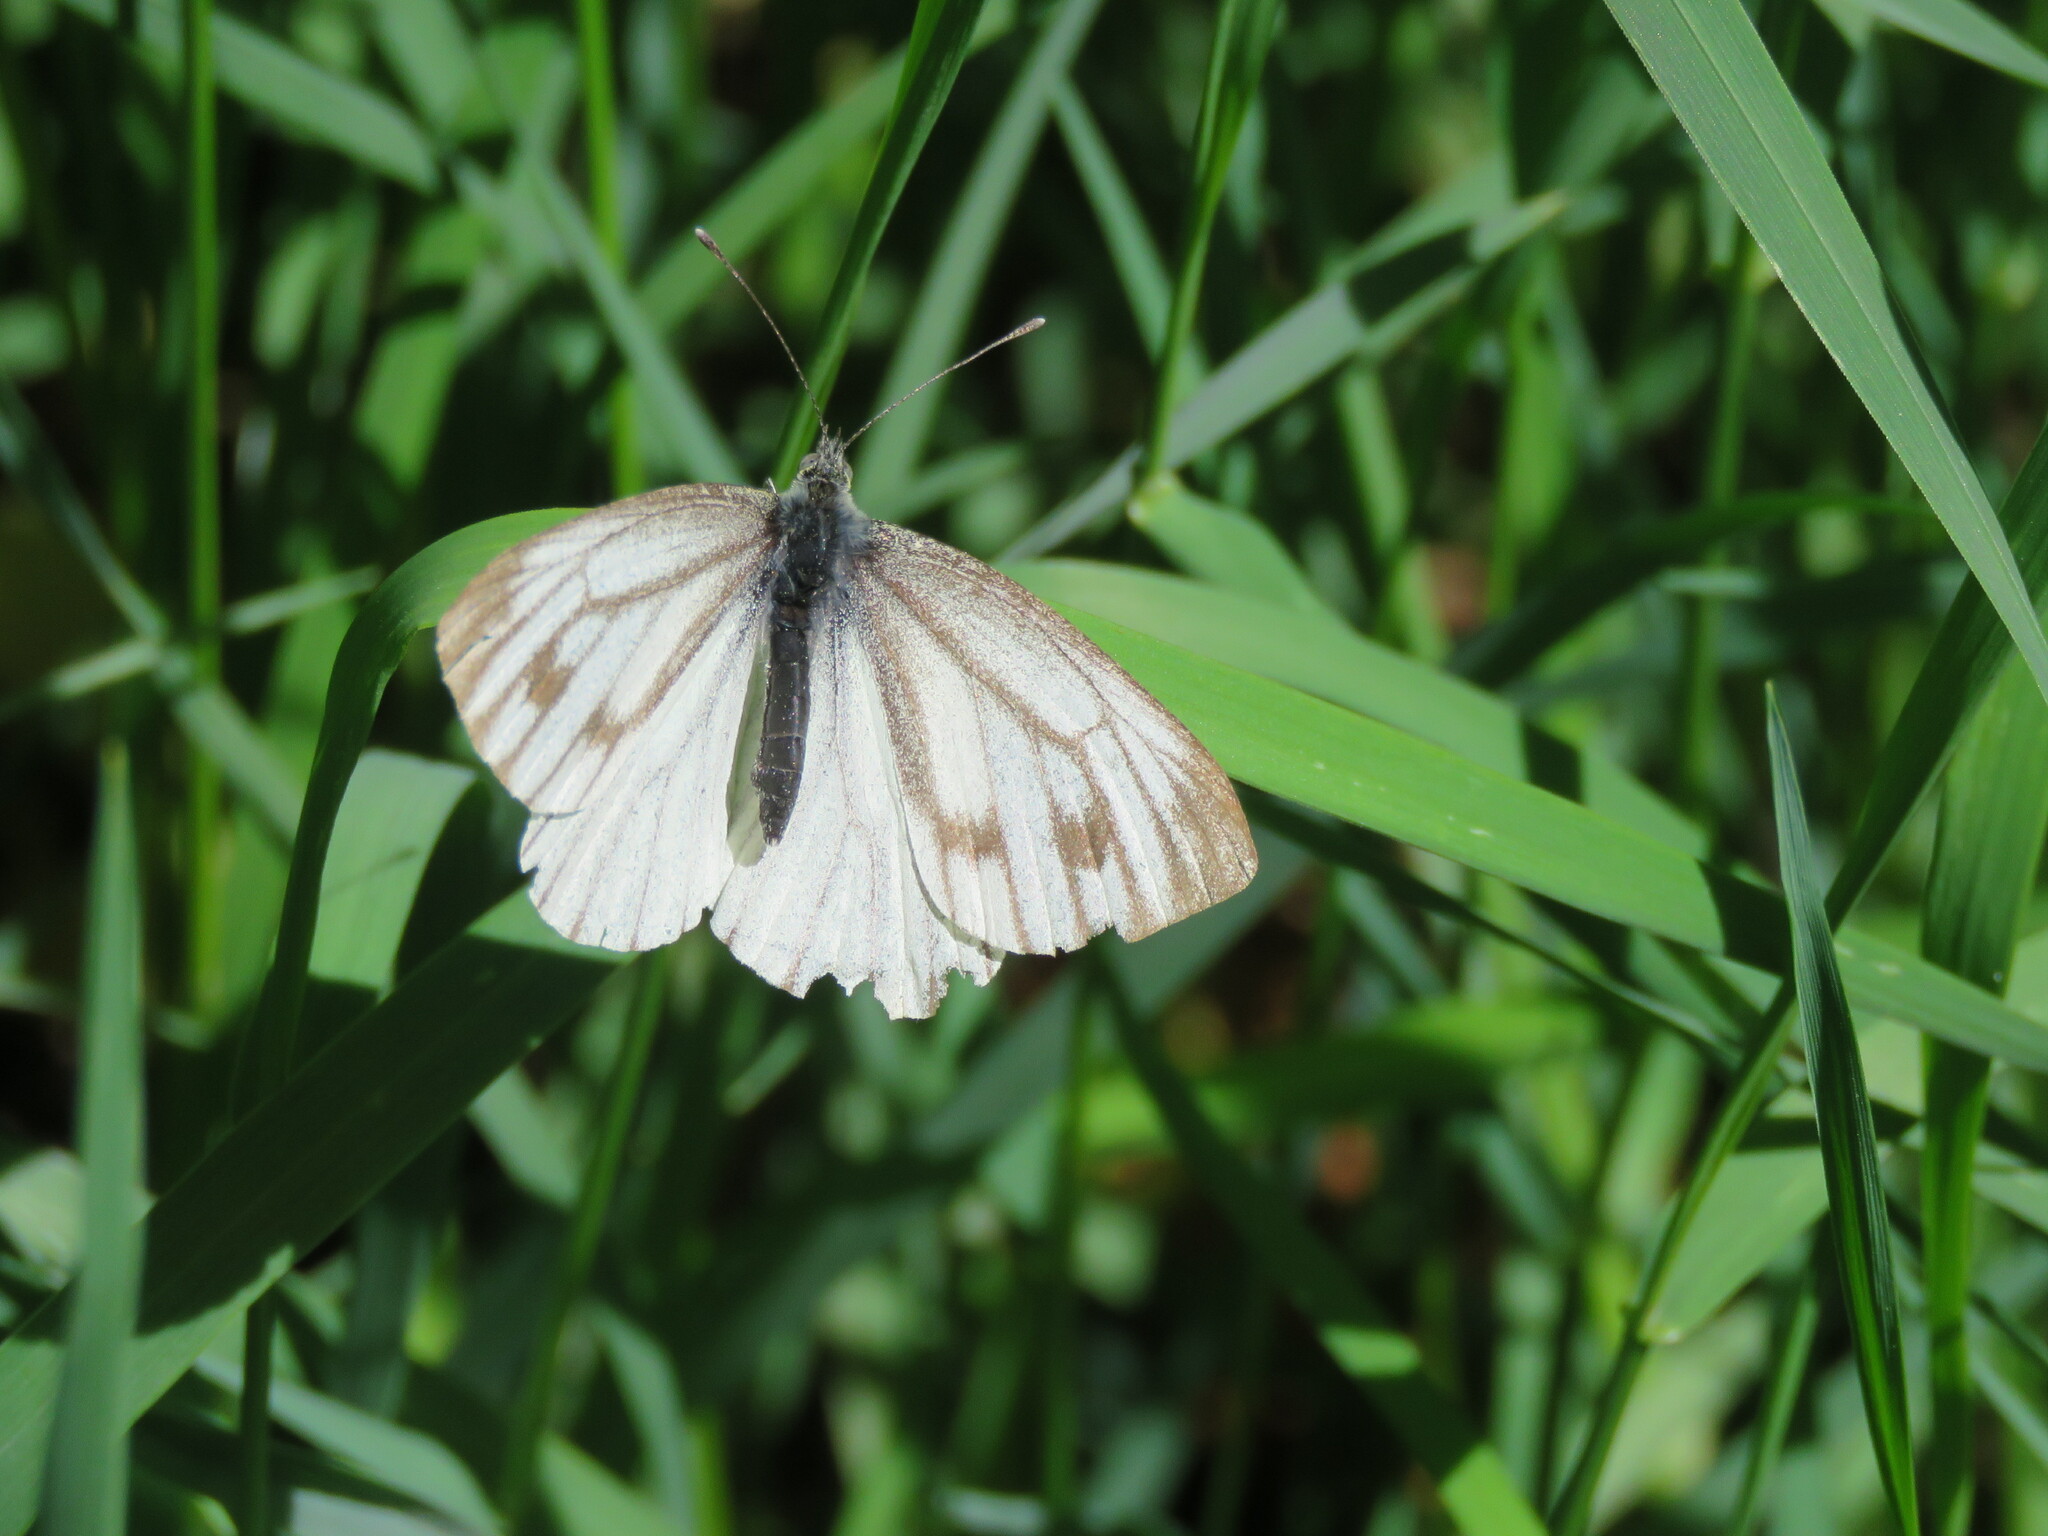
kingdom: Animalia
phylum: Arthropoda
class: Insecta
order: Lepidoptera
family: Pieridae
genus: Pieris
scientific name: Pieris napi
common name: Green-veined white
